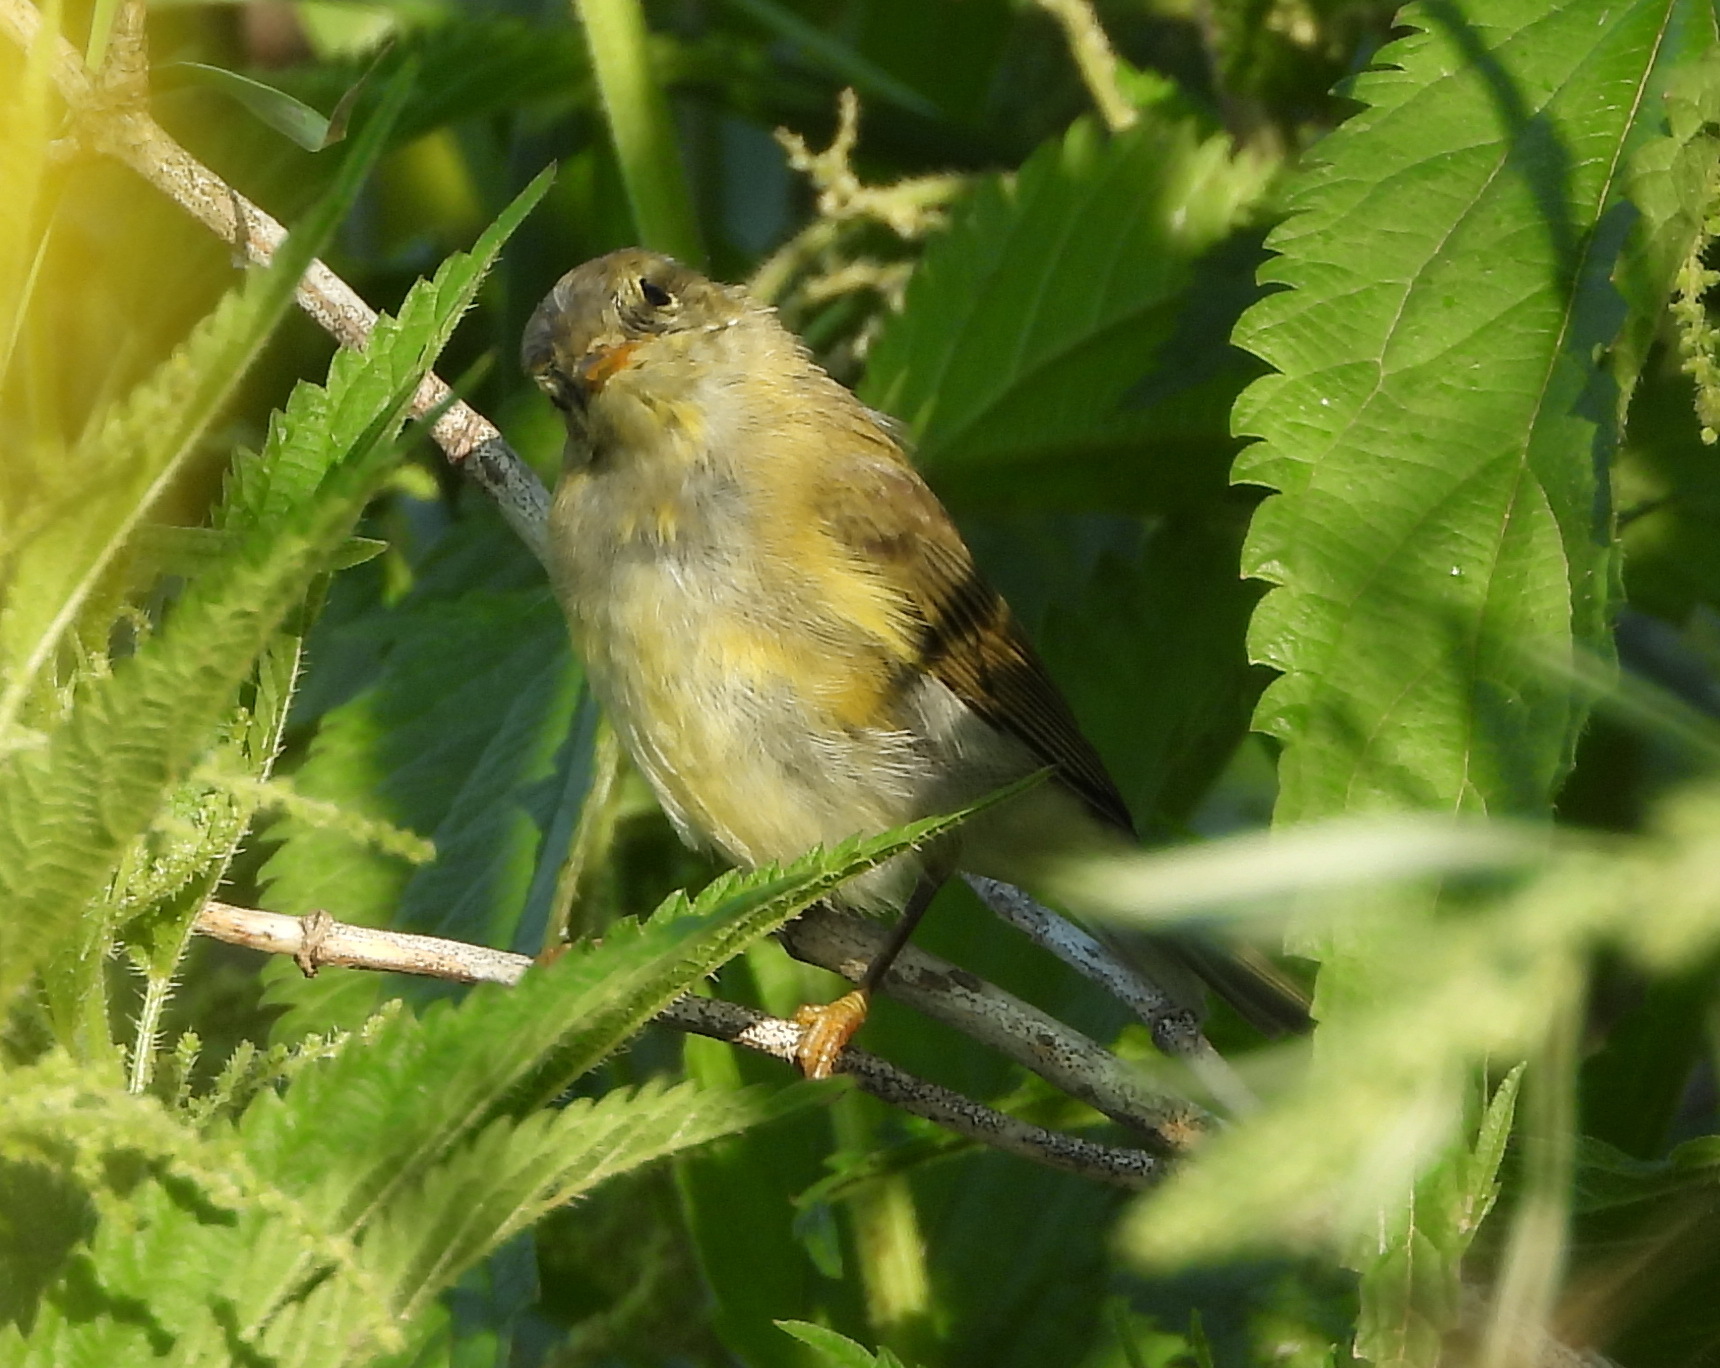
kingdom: Animalia
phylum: Chordata
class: Aves
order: Passeriformes
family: Phylloscopidae
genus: Phylloscopus
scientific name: Phylloscopus trochilus
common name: Willow warbler
